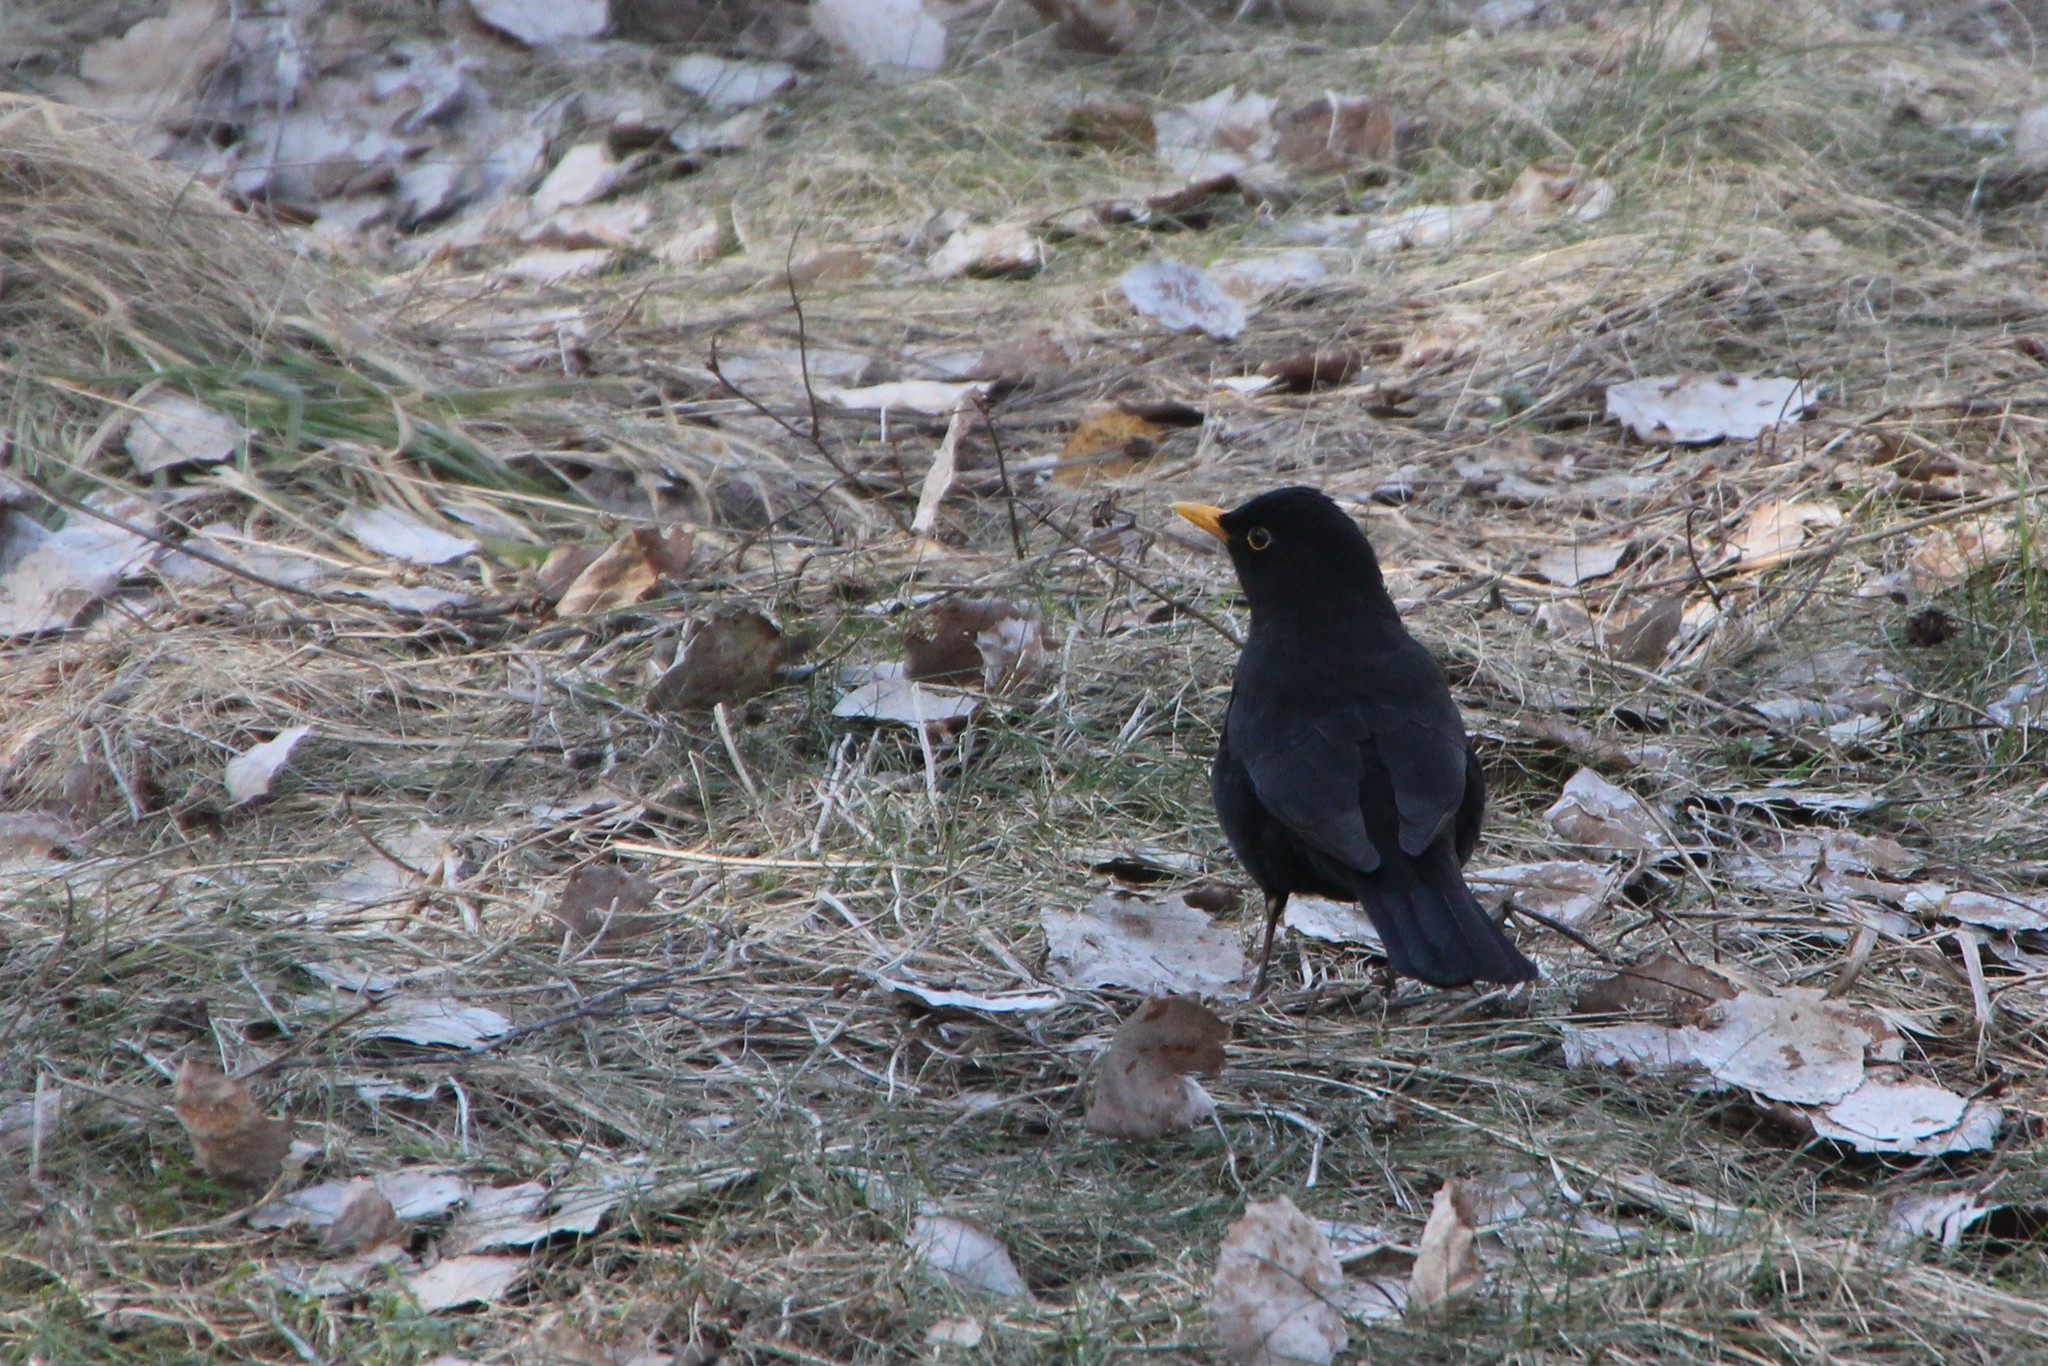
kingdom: Animalia
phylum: Chordata
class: Aves
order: Passeriformes
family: Turdidae
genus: Turdus
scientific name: Turdus merula
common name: Common blackbird
